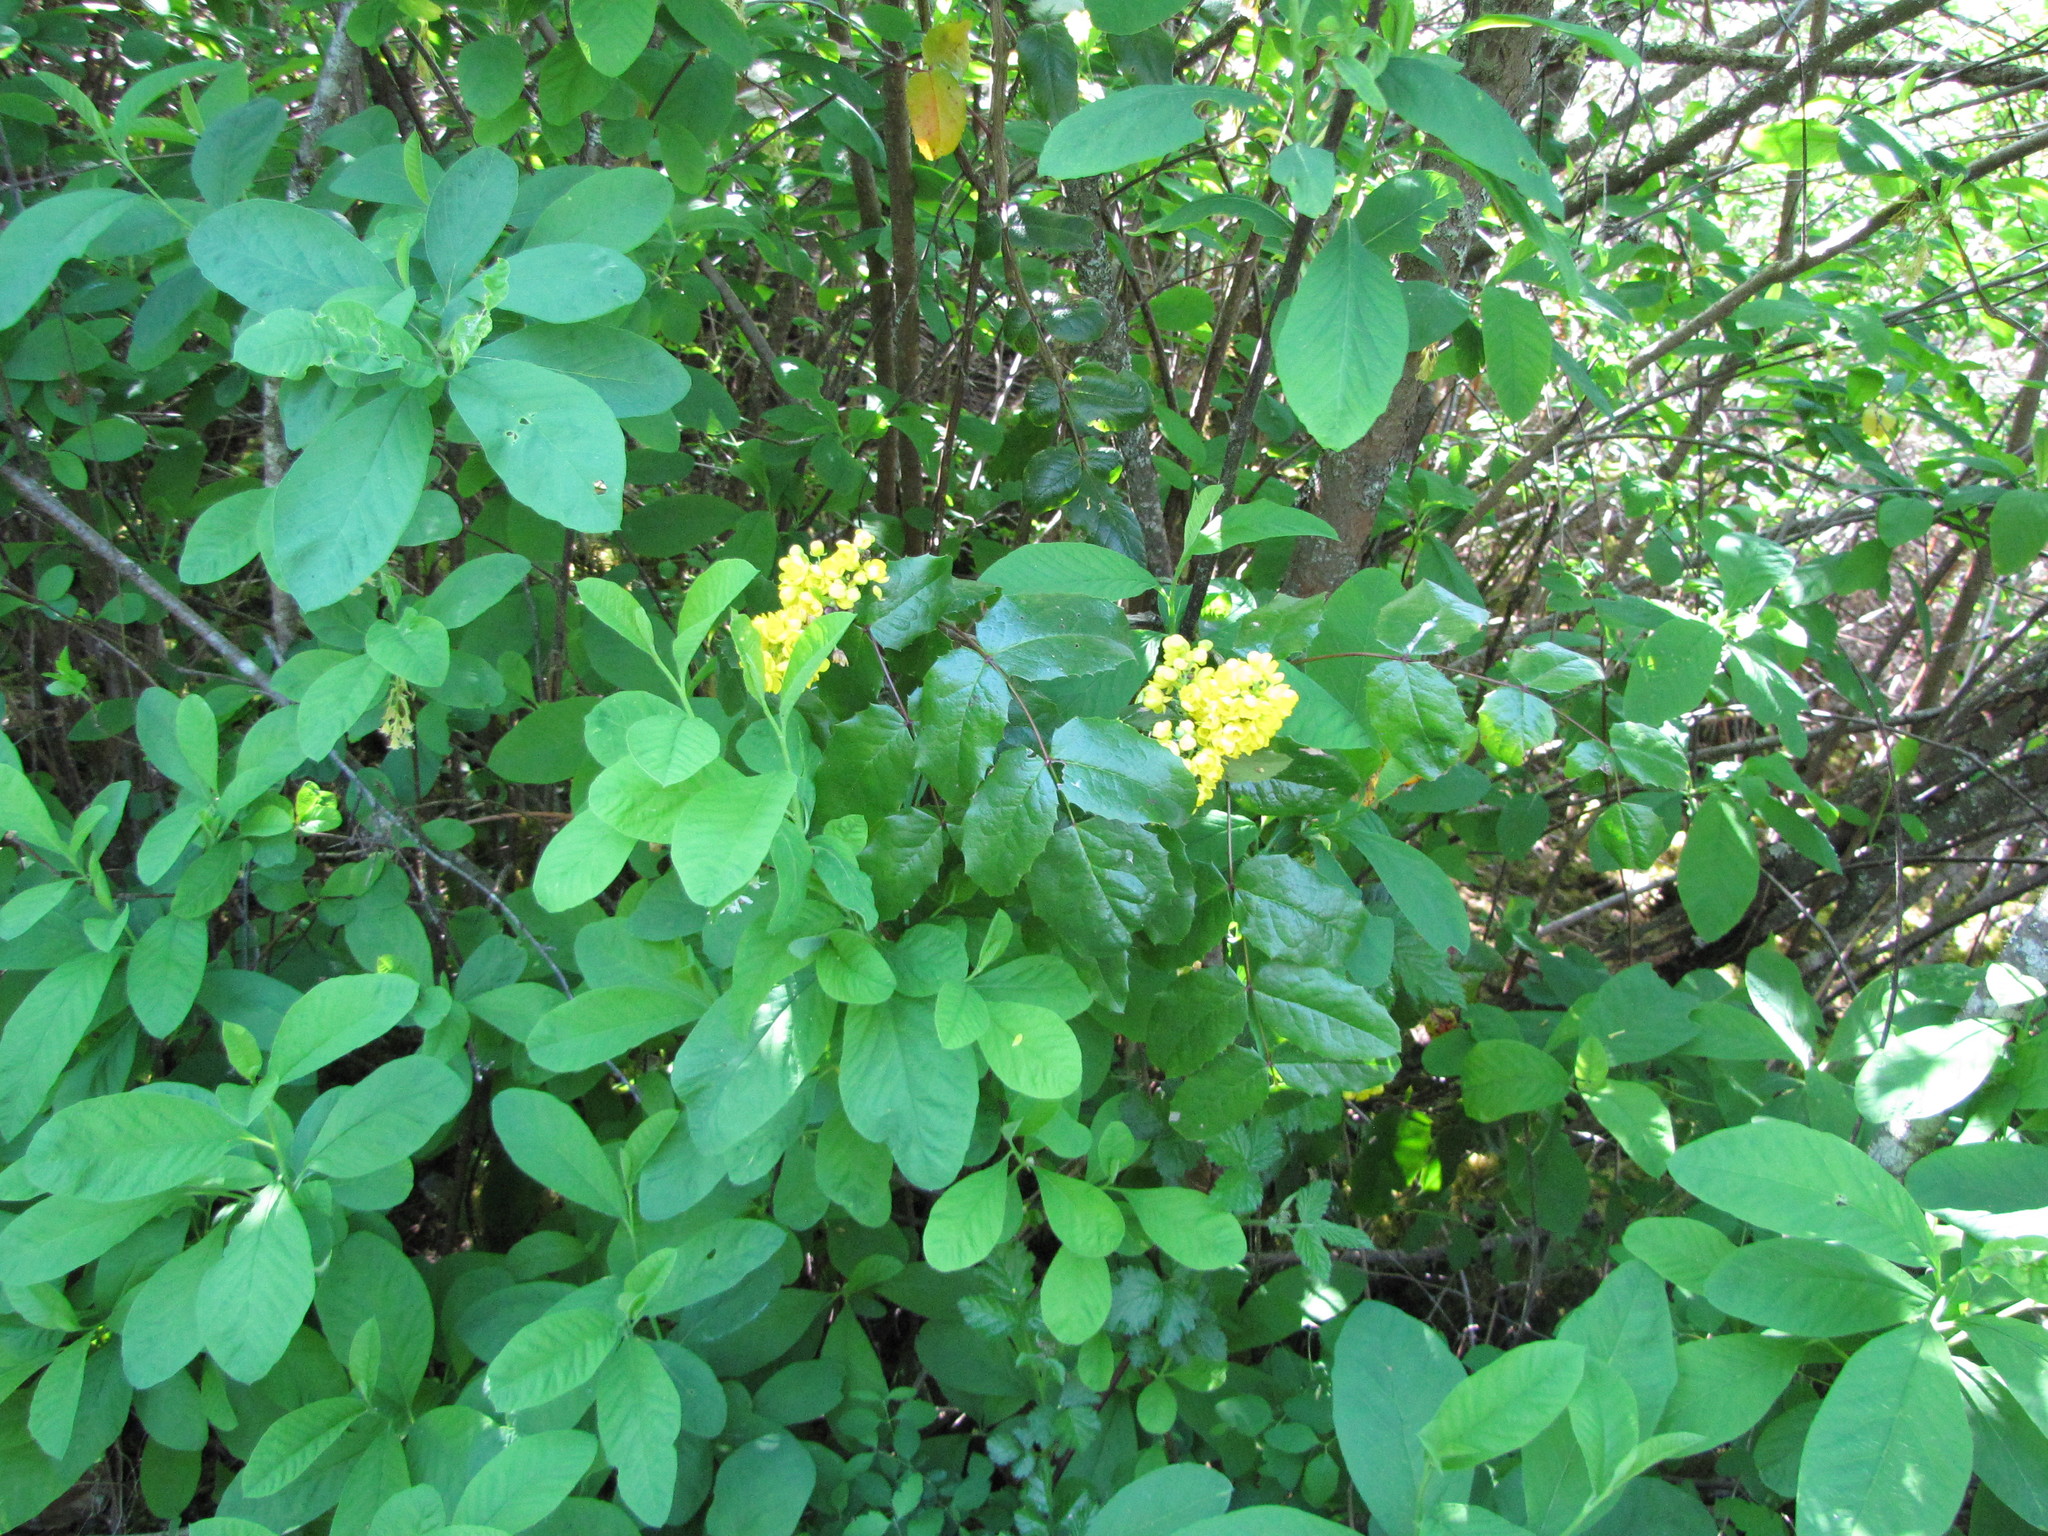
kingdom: Plantae
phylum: Tracheophyta
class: Magnoliopsida
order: Ranunculales
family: Berberidaceae
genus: Mahonia
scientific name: Mahonia aquifolium
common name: Oregon-grape
